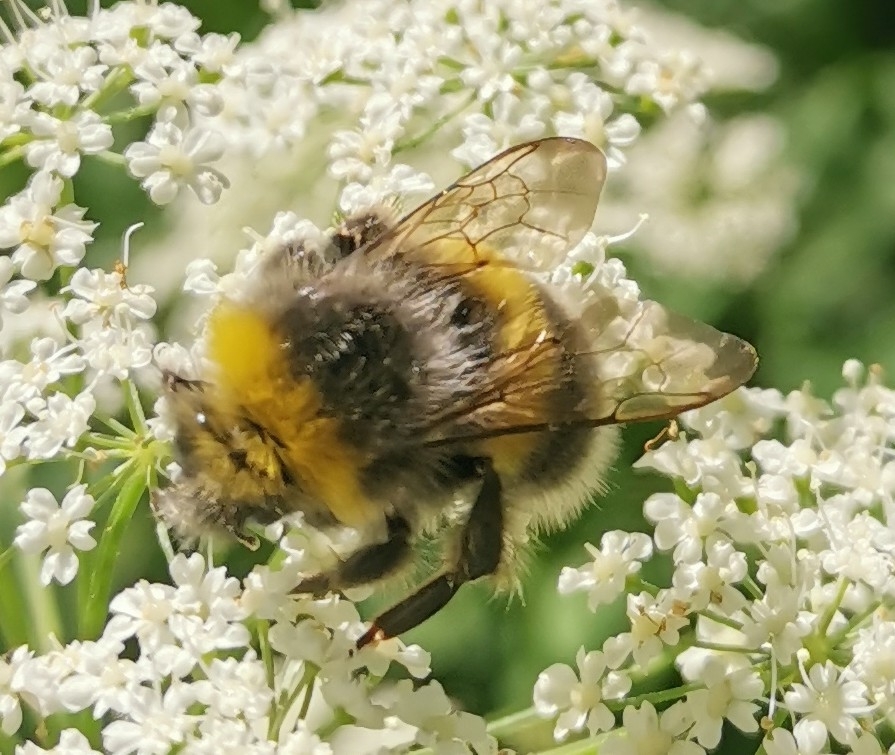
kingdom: Animalia
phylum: Arthropoda
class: Insecta
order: Hymenoptera
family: Apidae
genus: Bombus
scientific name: Bombus lucorum
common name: White-tailed bumblebee
